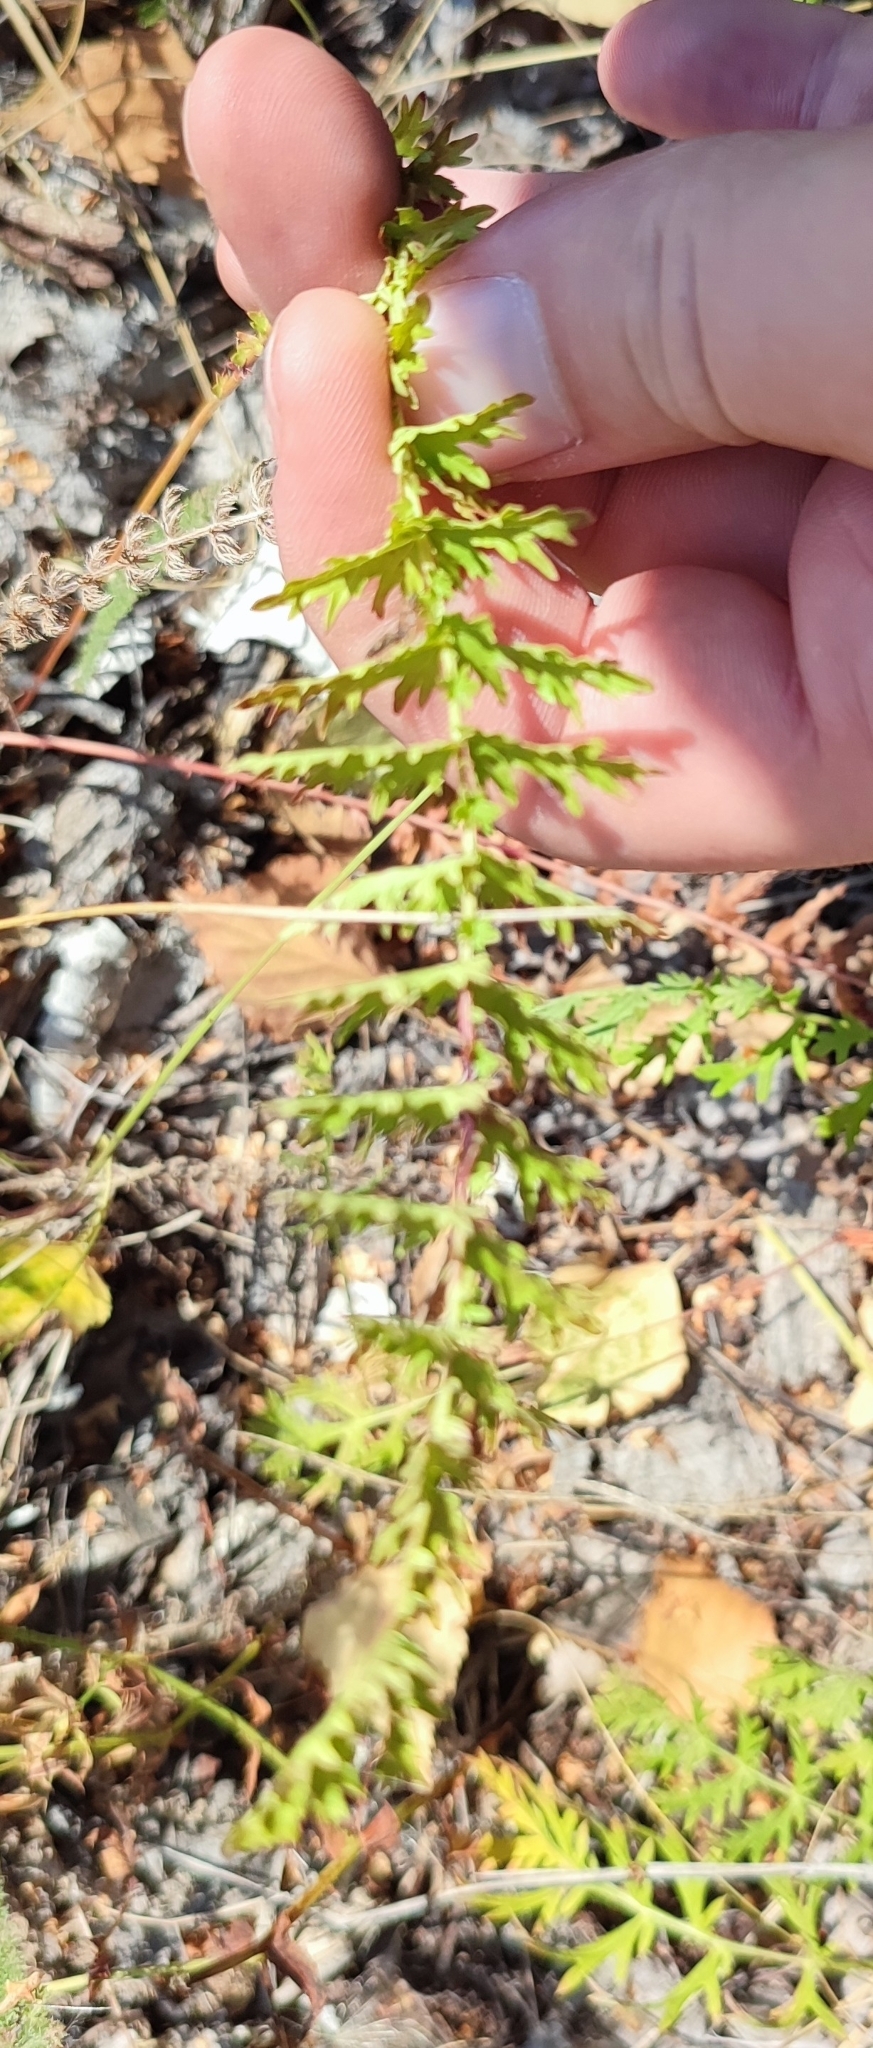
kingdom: Plantae
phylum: Tracheophyta
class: Magnoliopsida
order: Rosales
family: Rosaceae
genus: Filipendula
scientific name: Filipendula vulgaris
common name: Dropwort
